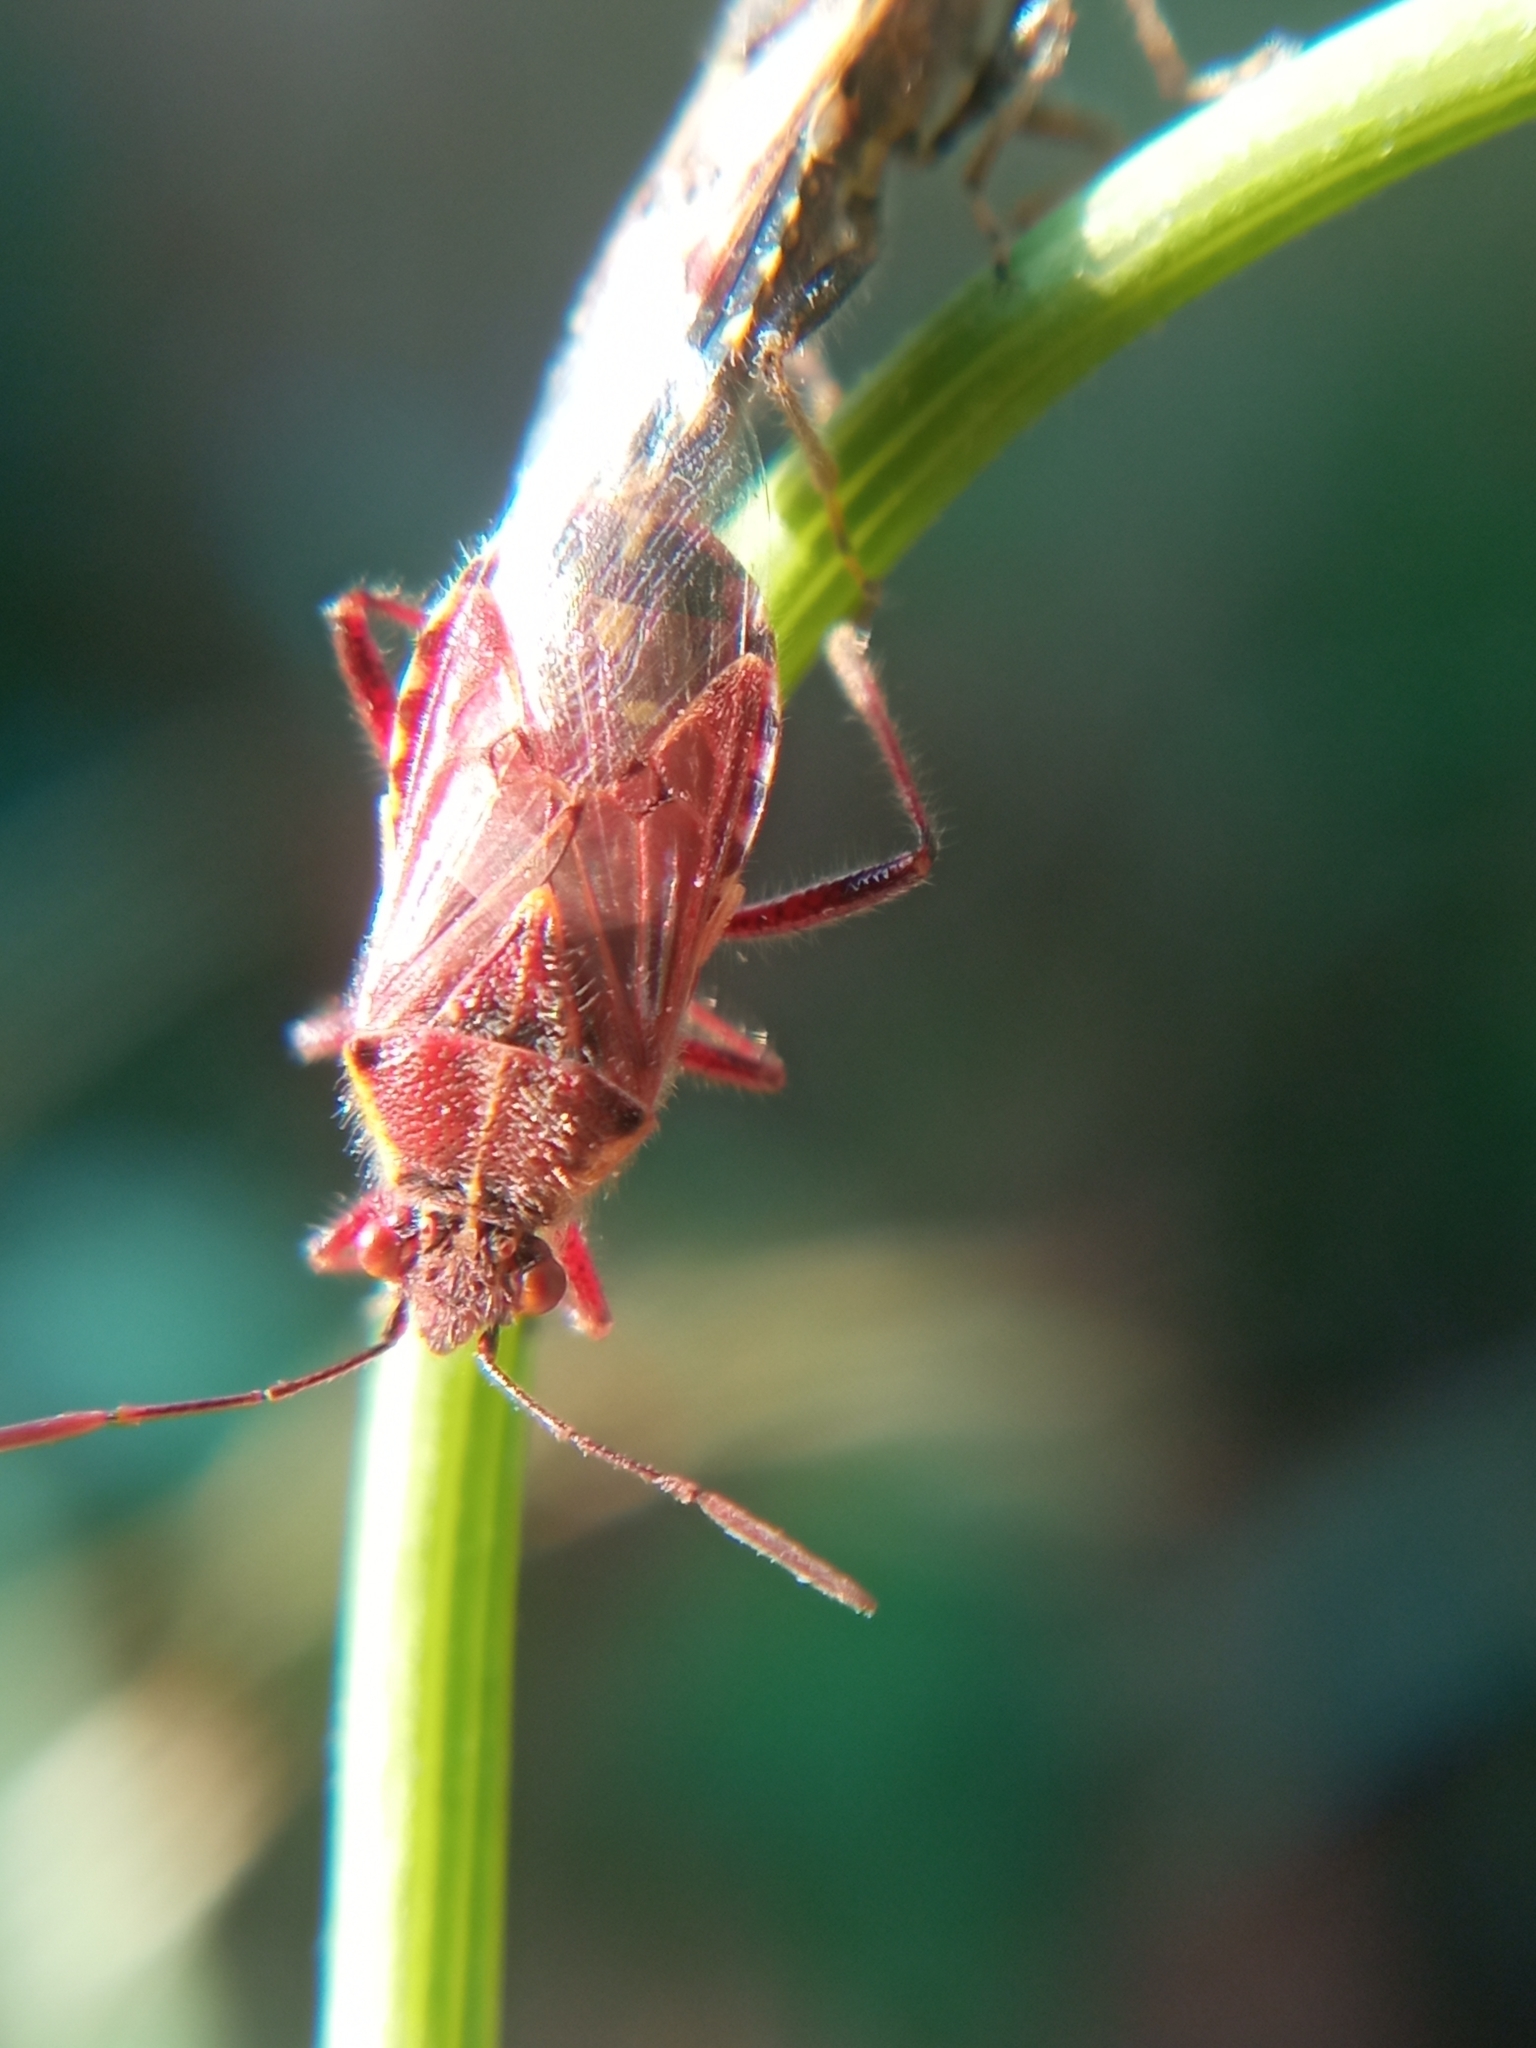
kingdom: Animalia
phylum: Arthropoda
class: Insecta
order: Hemiptera
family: Rhopalidae
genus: Liorhyssus
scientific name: Liorhyssus hyalinus
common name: Scentless plant bug
